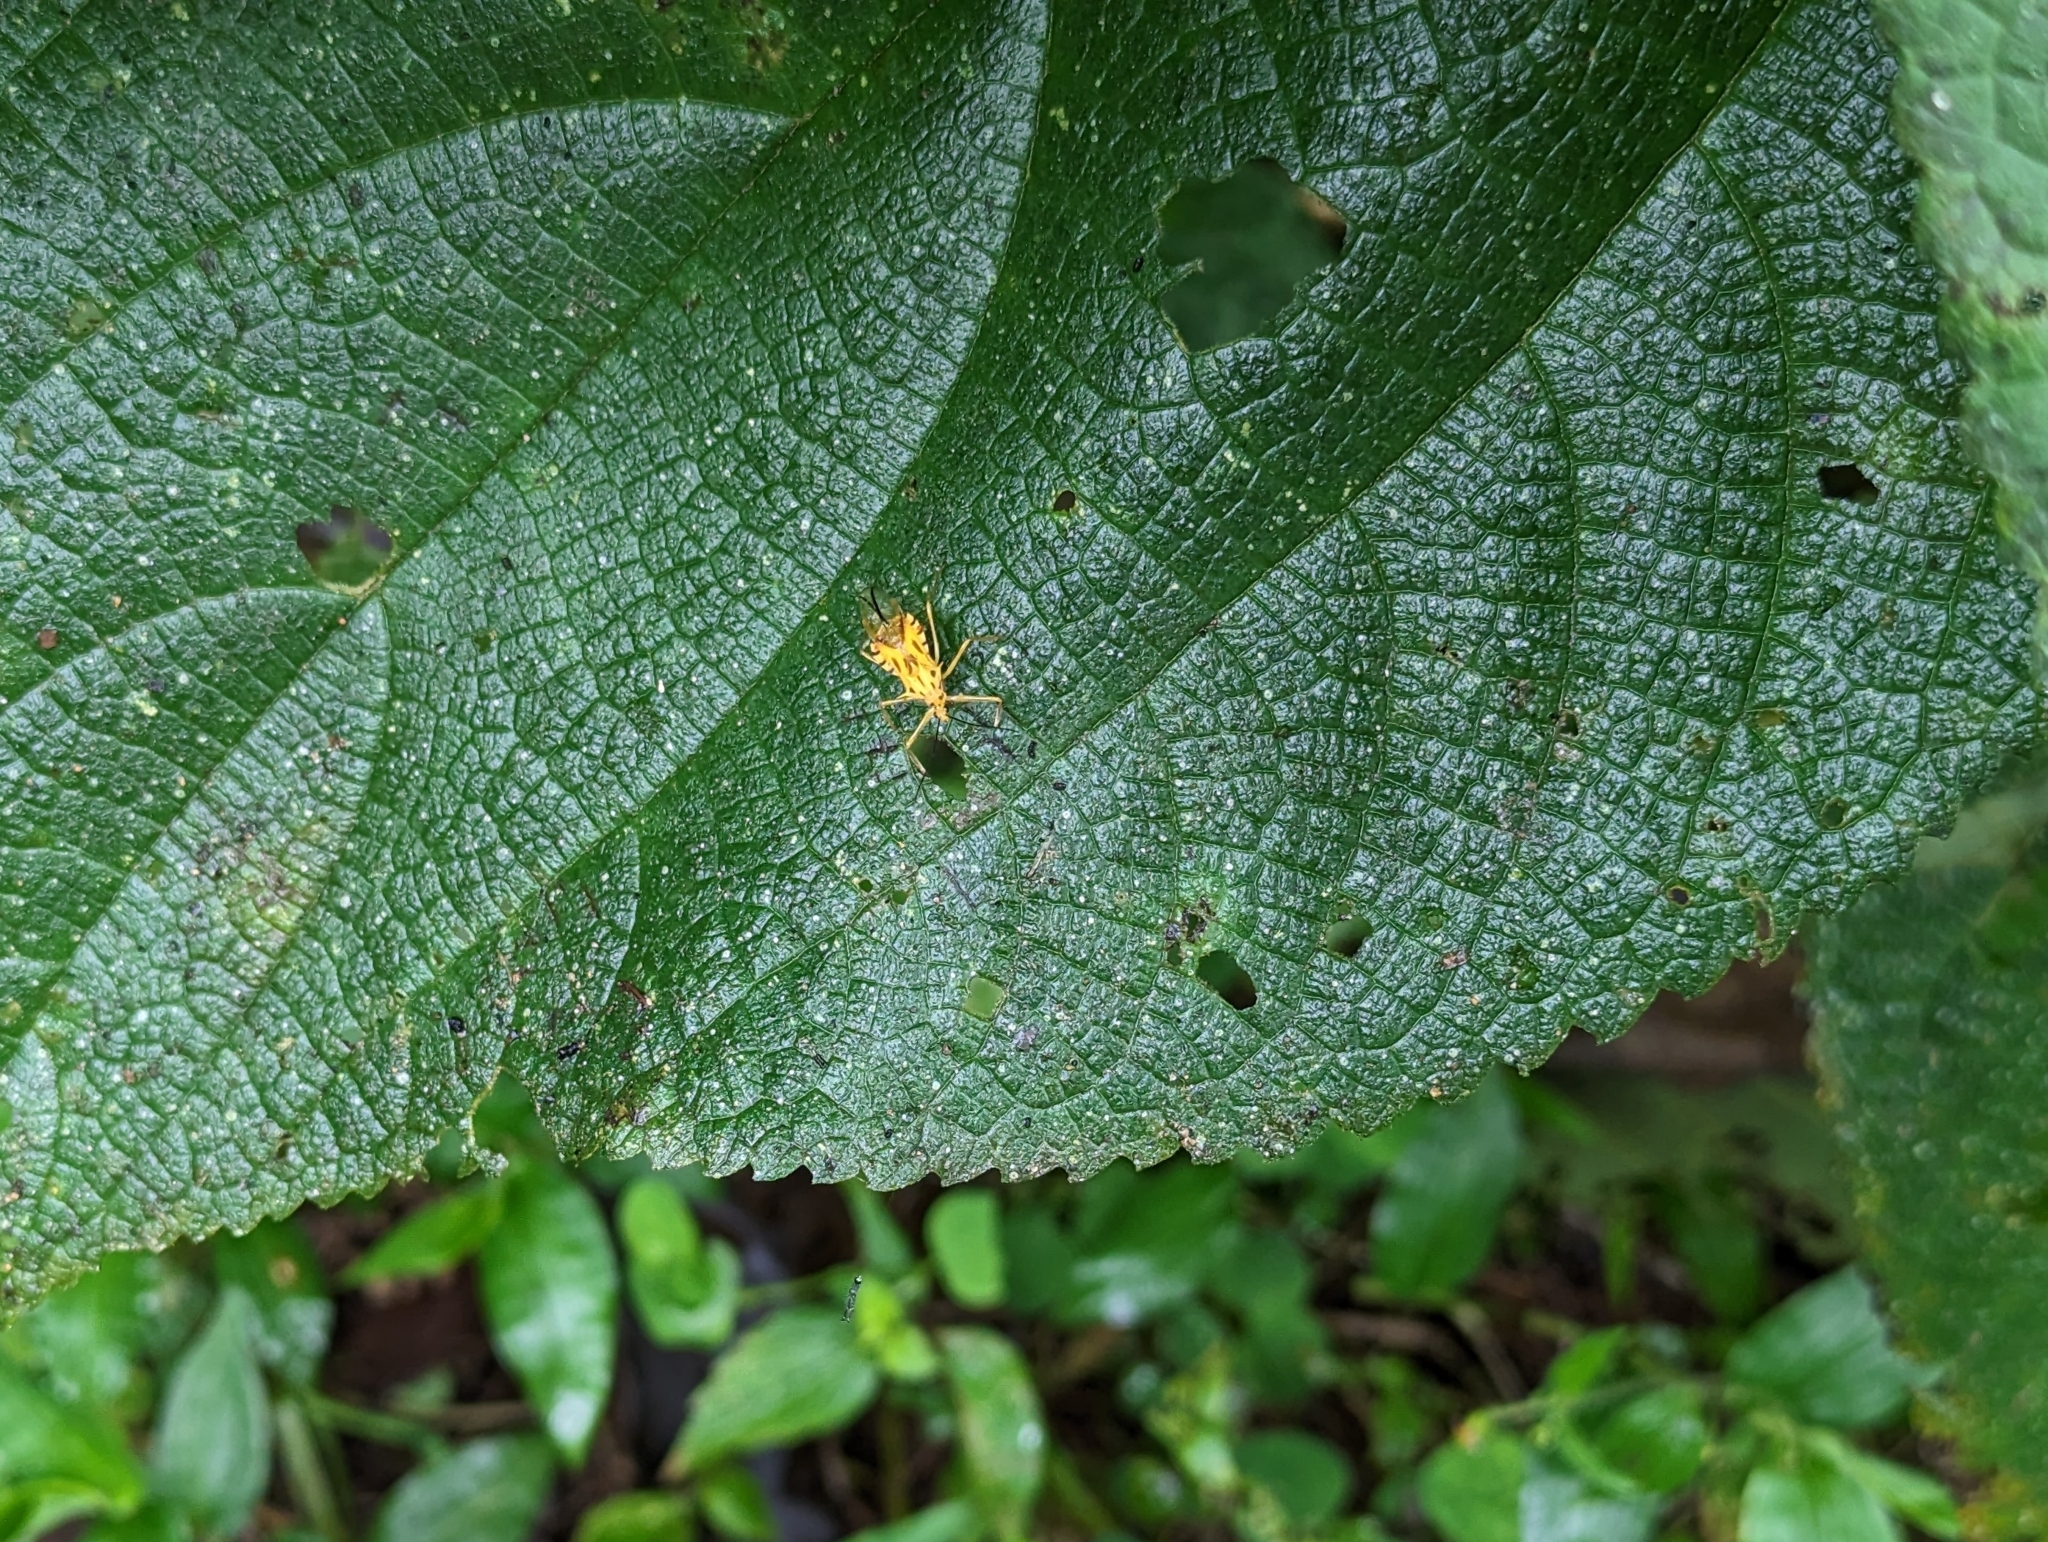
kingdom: Animalia
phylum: Arthropoda
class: Insecta
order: Hemiptera
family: Reduviidae
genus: Corcia
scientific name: Corcia columbica
